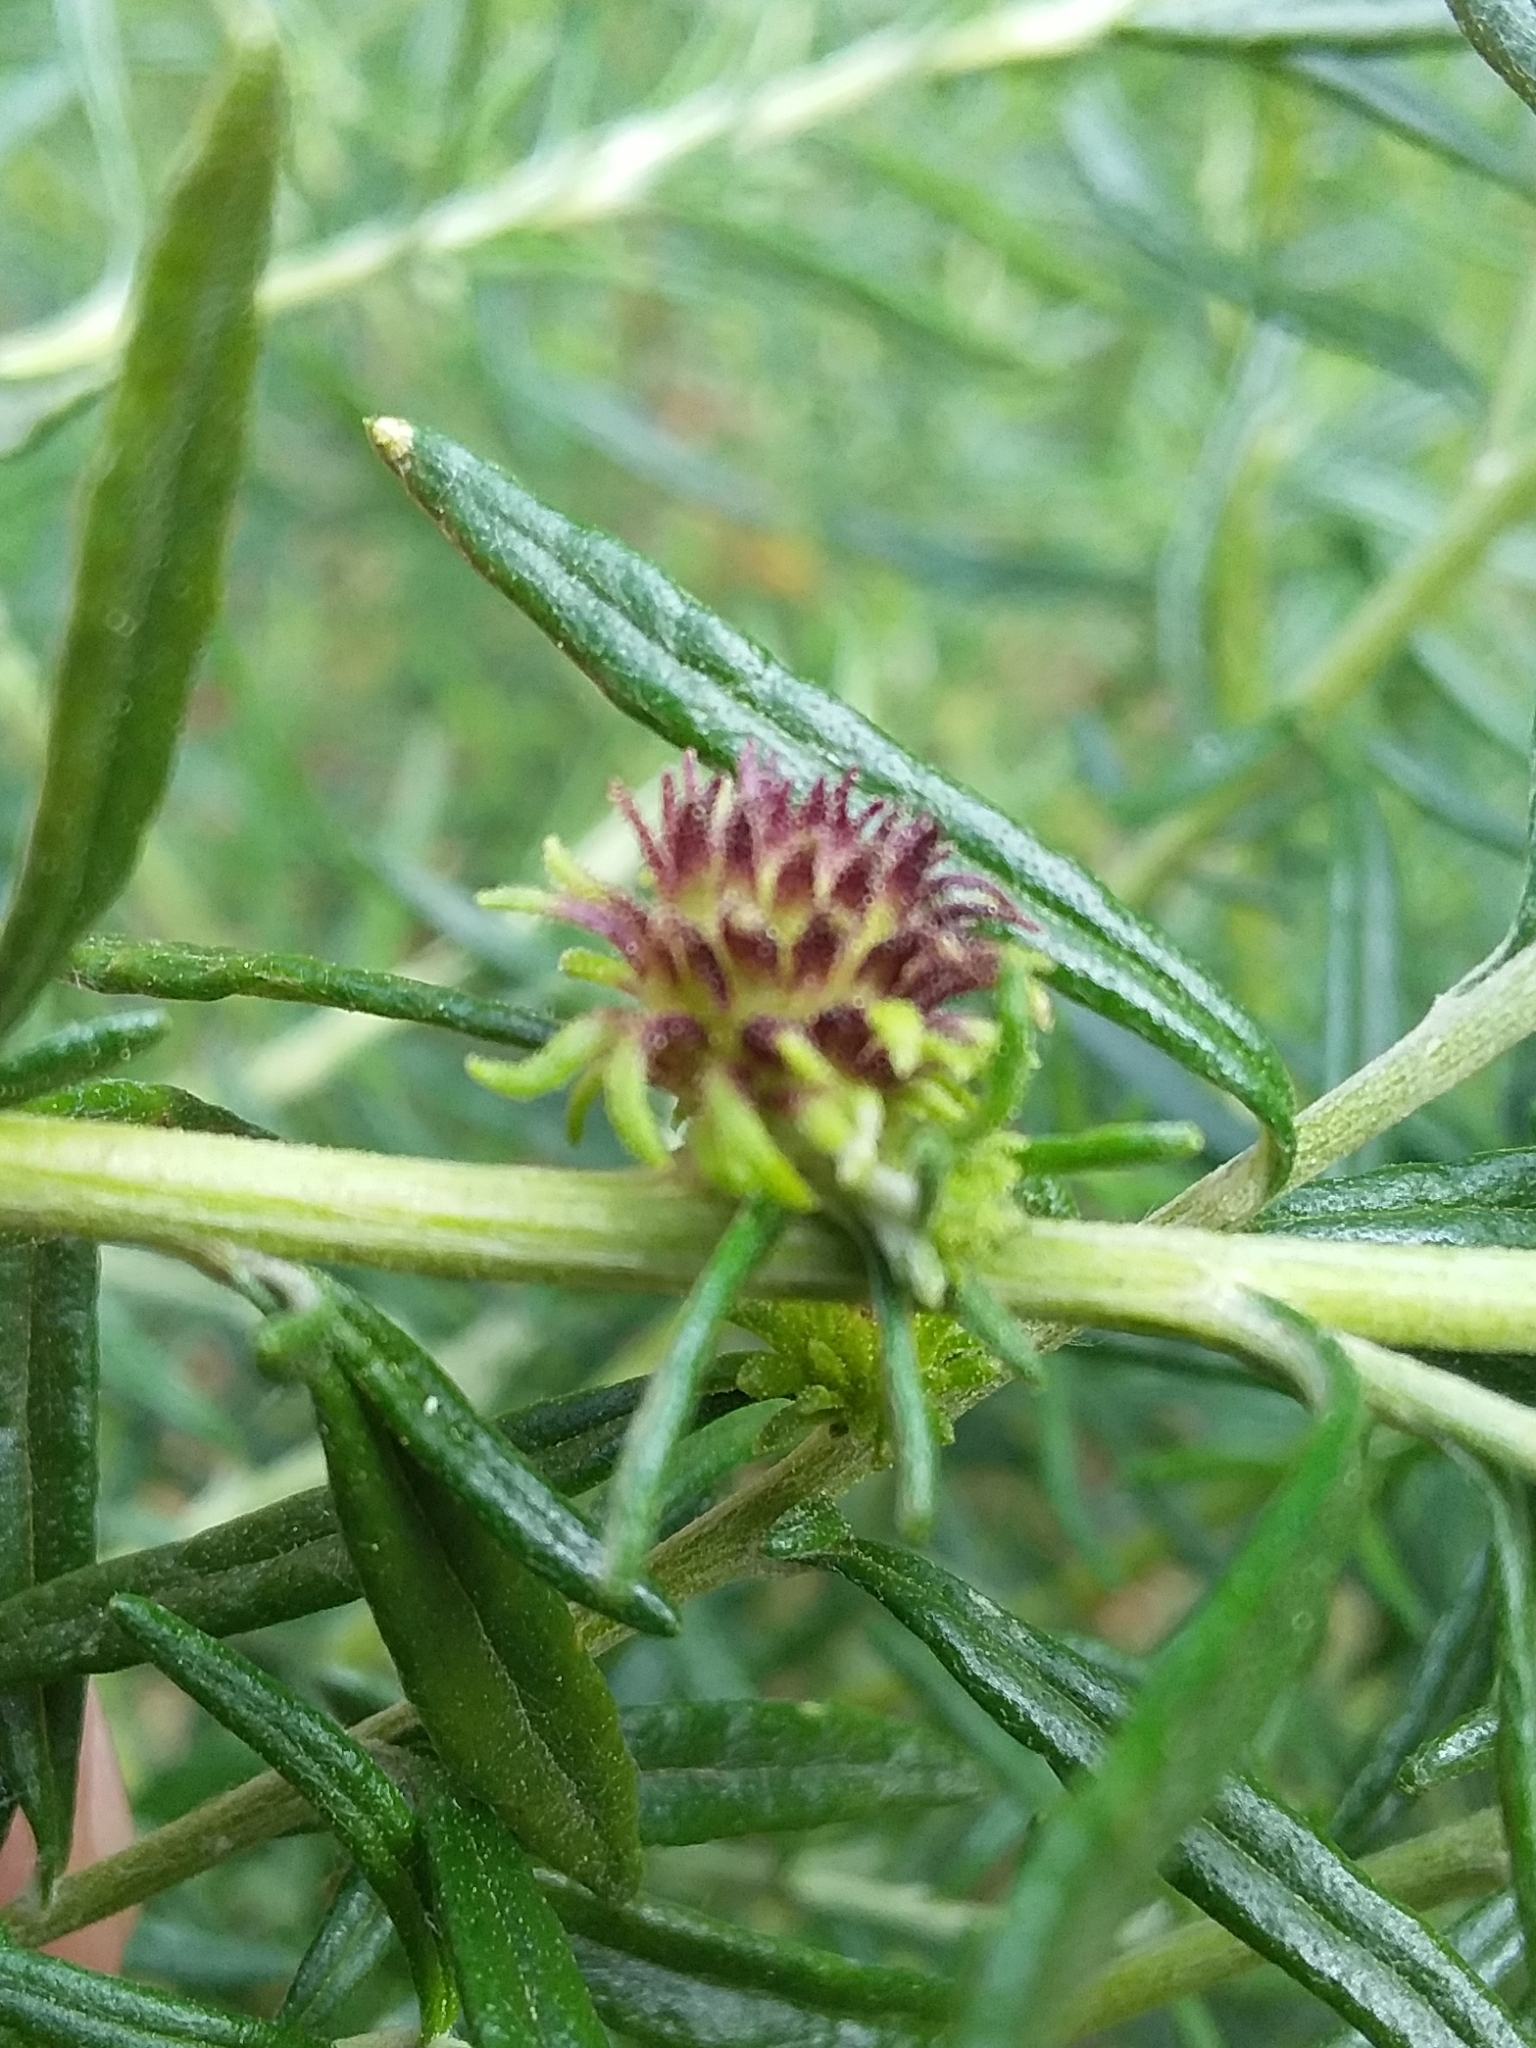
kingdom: Animalia
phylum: Arthropoda
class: Insecta
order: Diptera
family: Cecidomyiidae
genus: Trigonomyia
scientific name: Trigonomyia ananas
